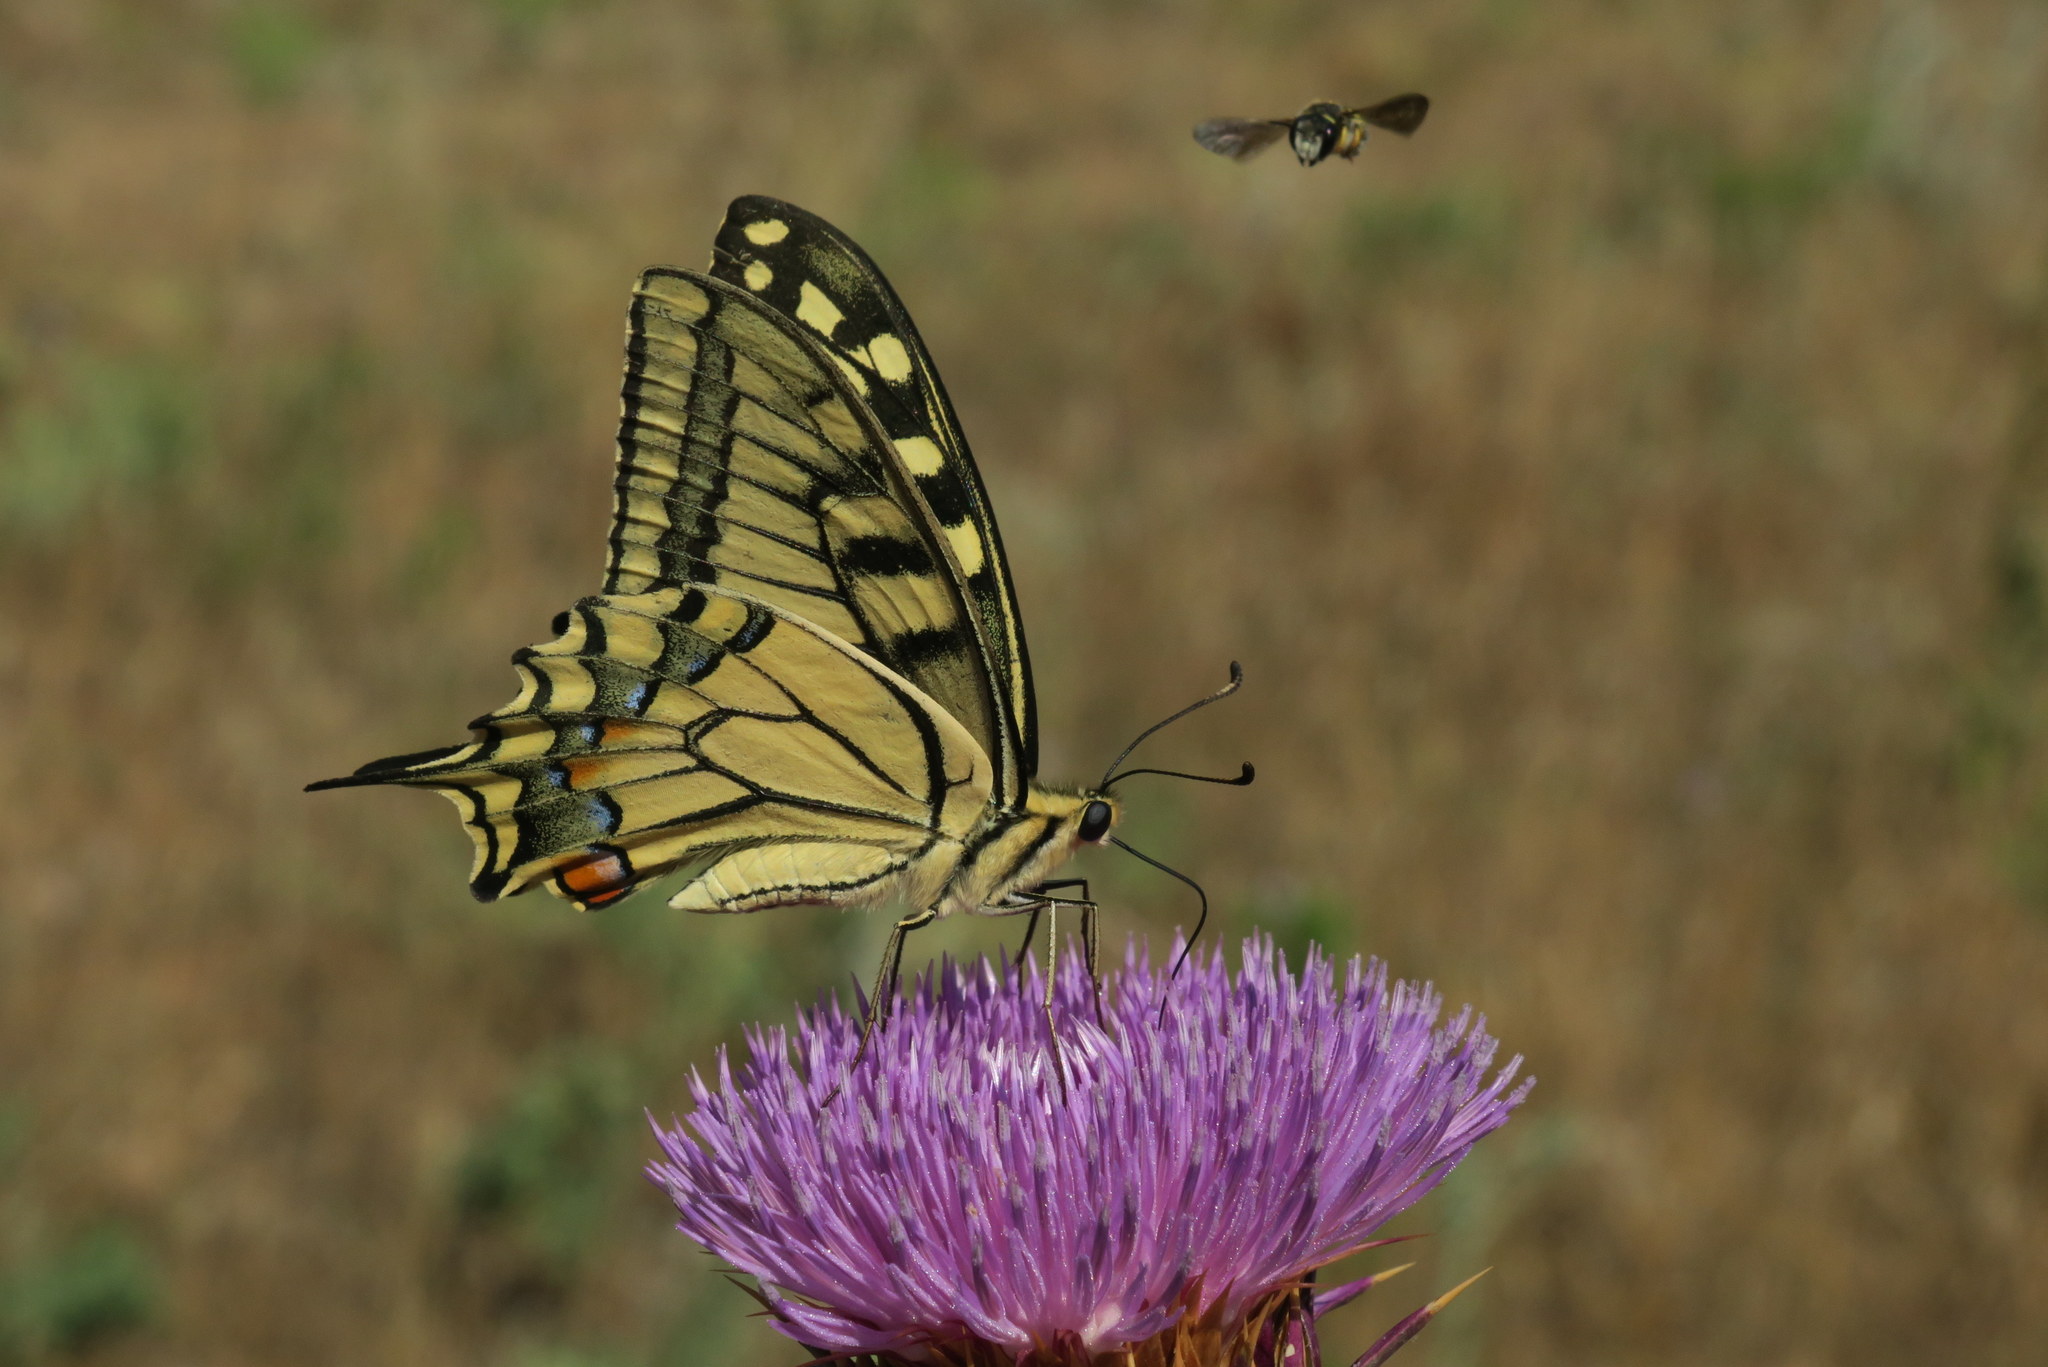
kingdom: Animalia
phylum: Arthropoda
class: Insecta
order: Lepidoptera
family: Papilionidae
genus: Papilio
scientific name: Papilio machaon
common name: Swallowtail
